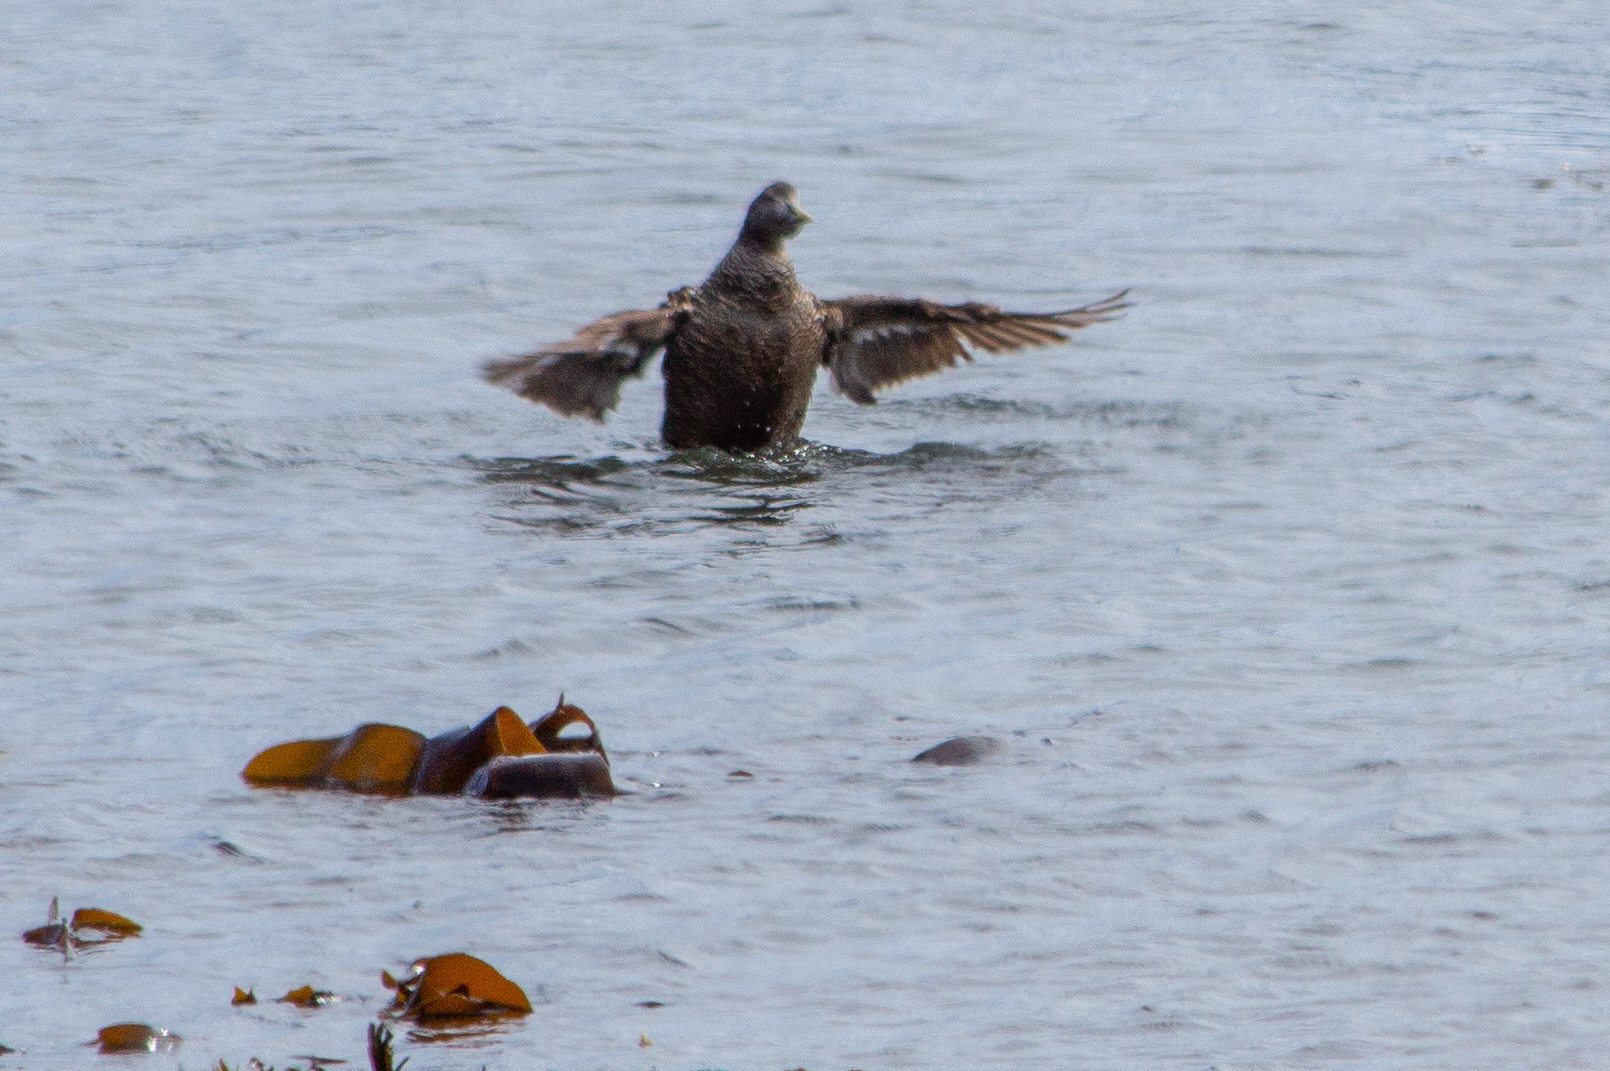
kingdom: Animalia
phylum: Chordata
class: Aves
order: Anseriformes
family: Anatidae
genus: Somateria
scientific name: Somateria mollissima
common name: Common eider
